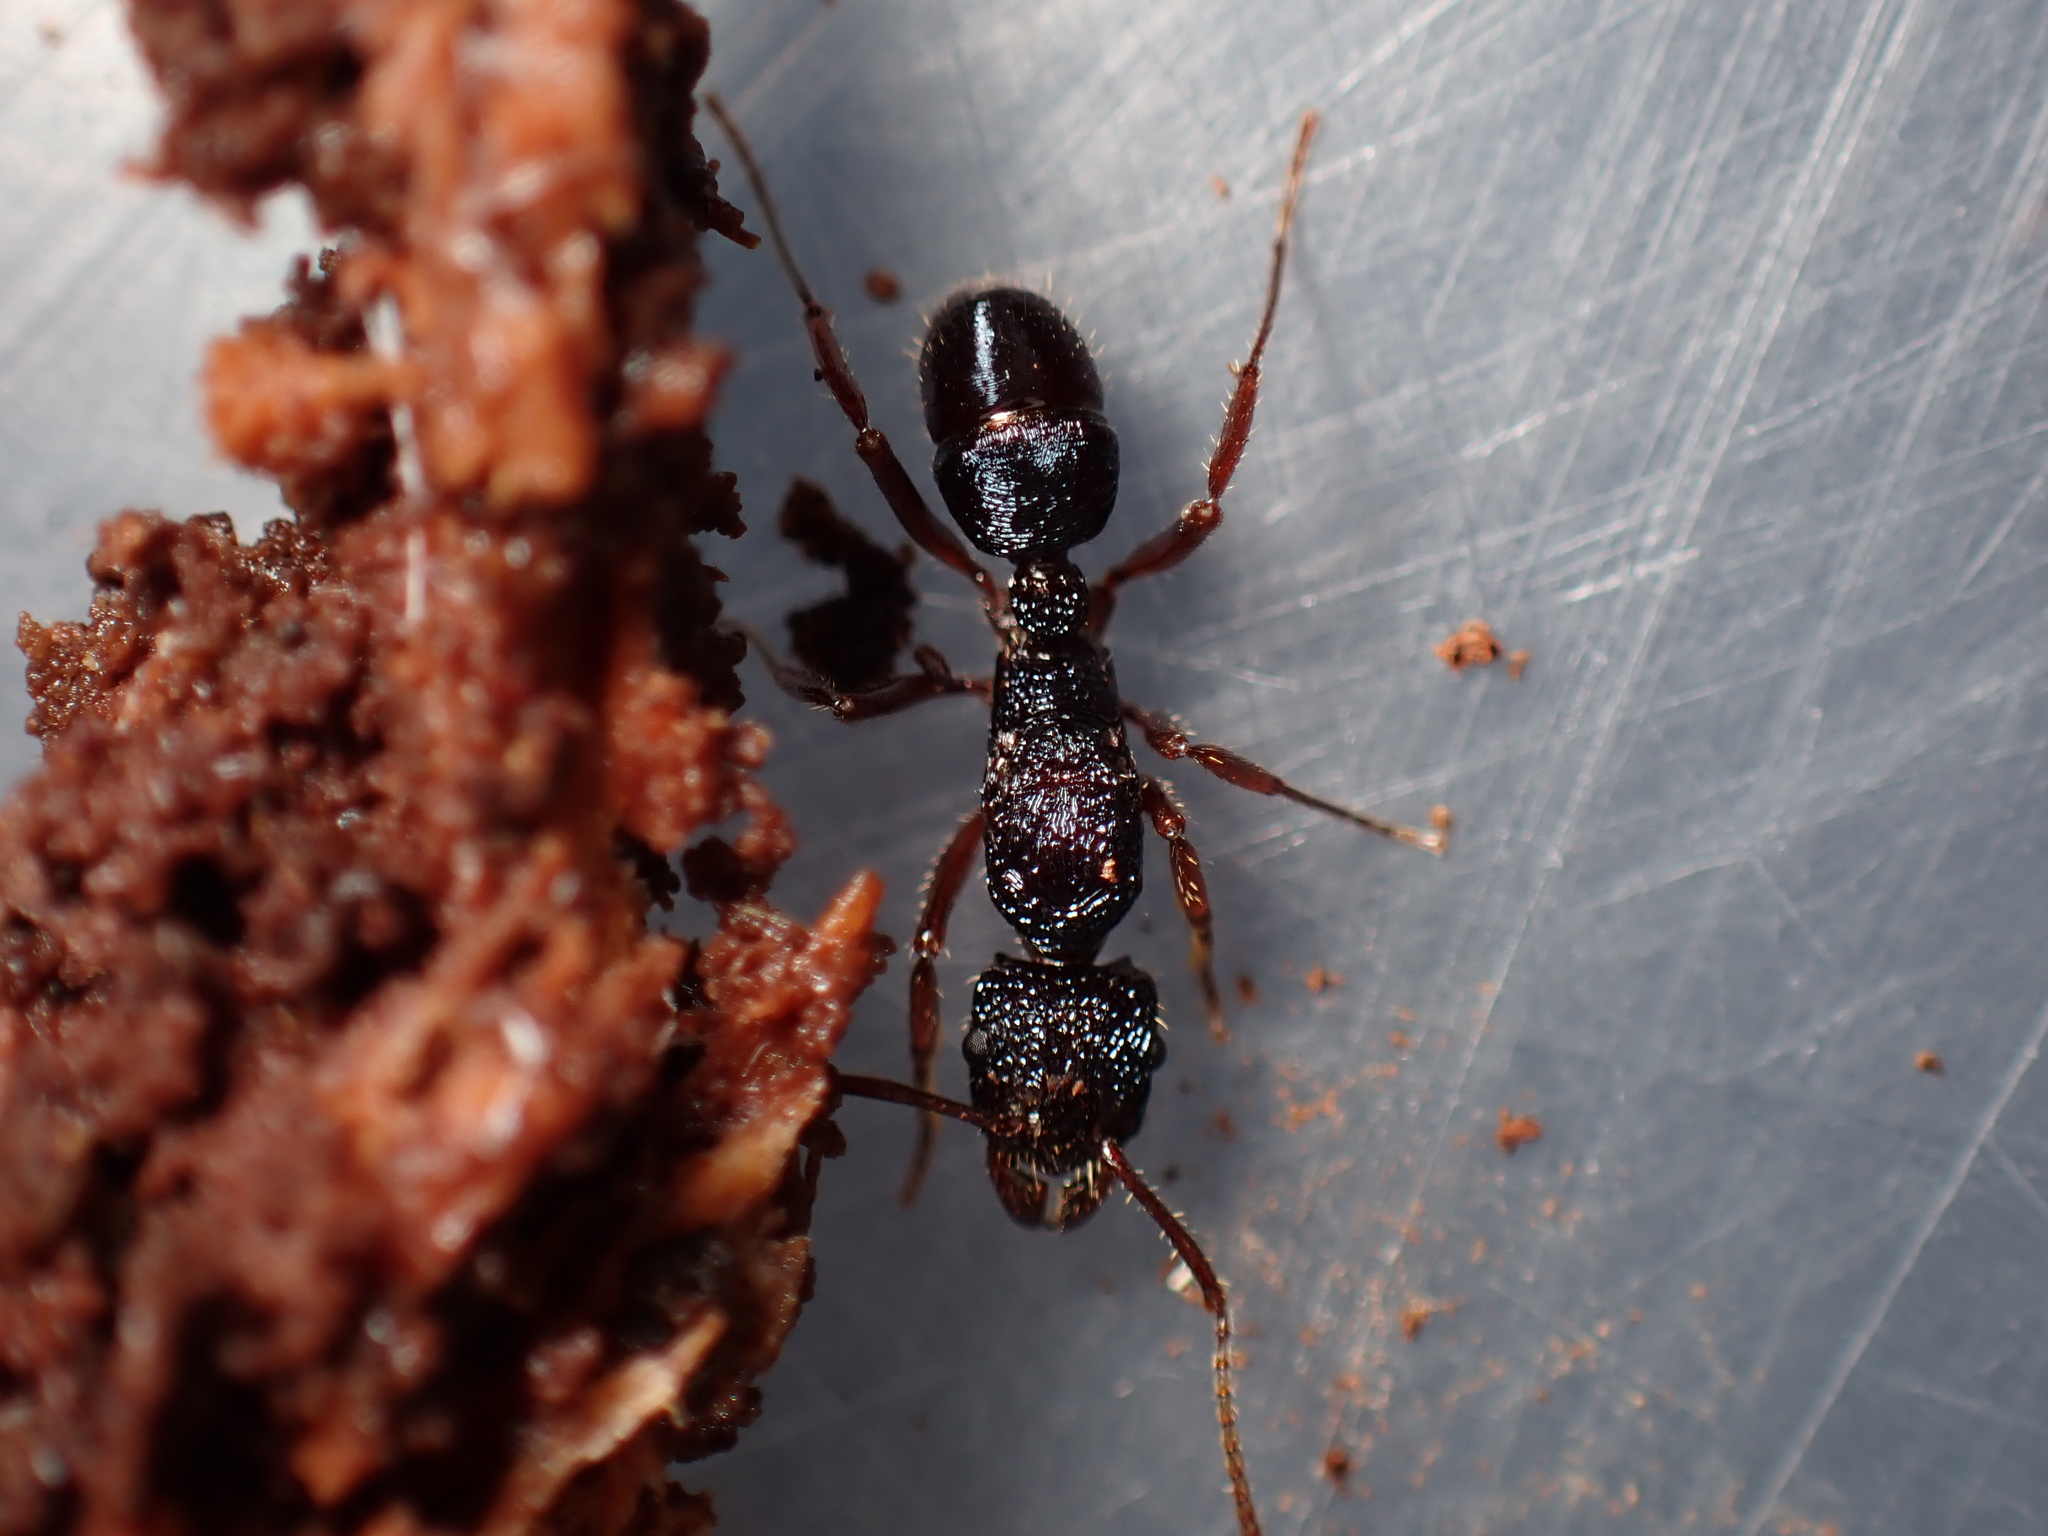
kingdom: Animalia
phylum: Arthropoda
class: Insecta
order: Hymenoptera
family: Formicidae
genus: Rhytidoponera
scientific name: Rhytidoponera chalybaea
